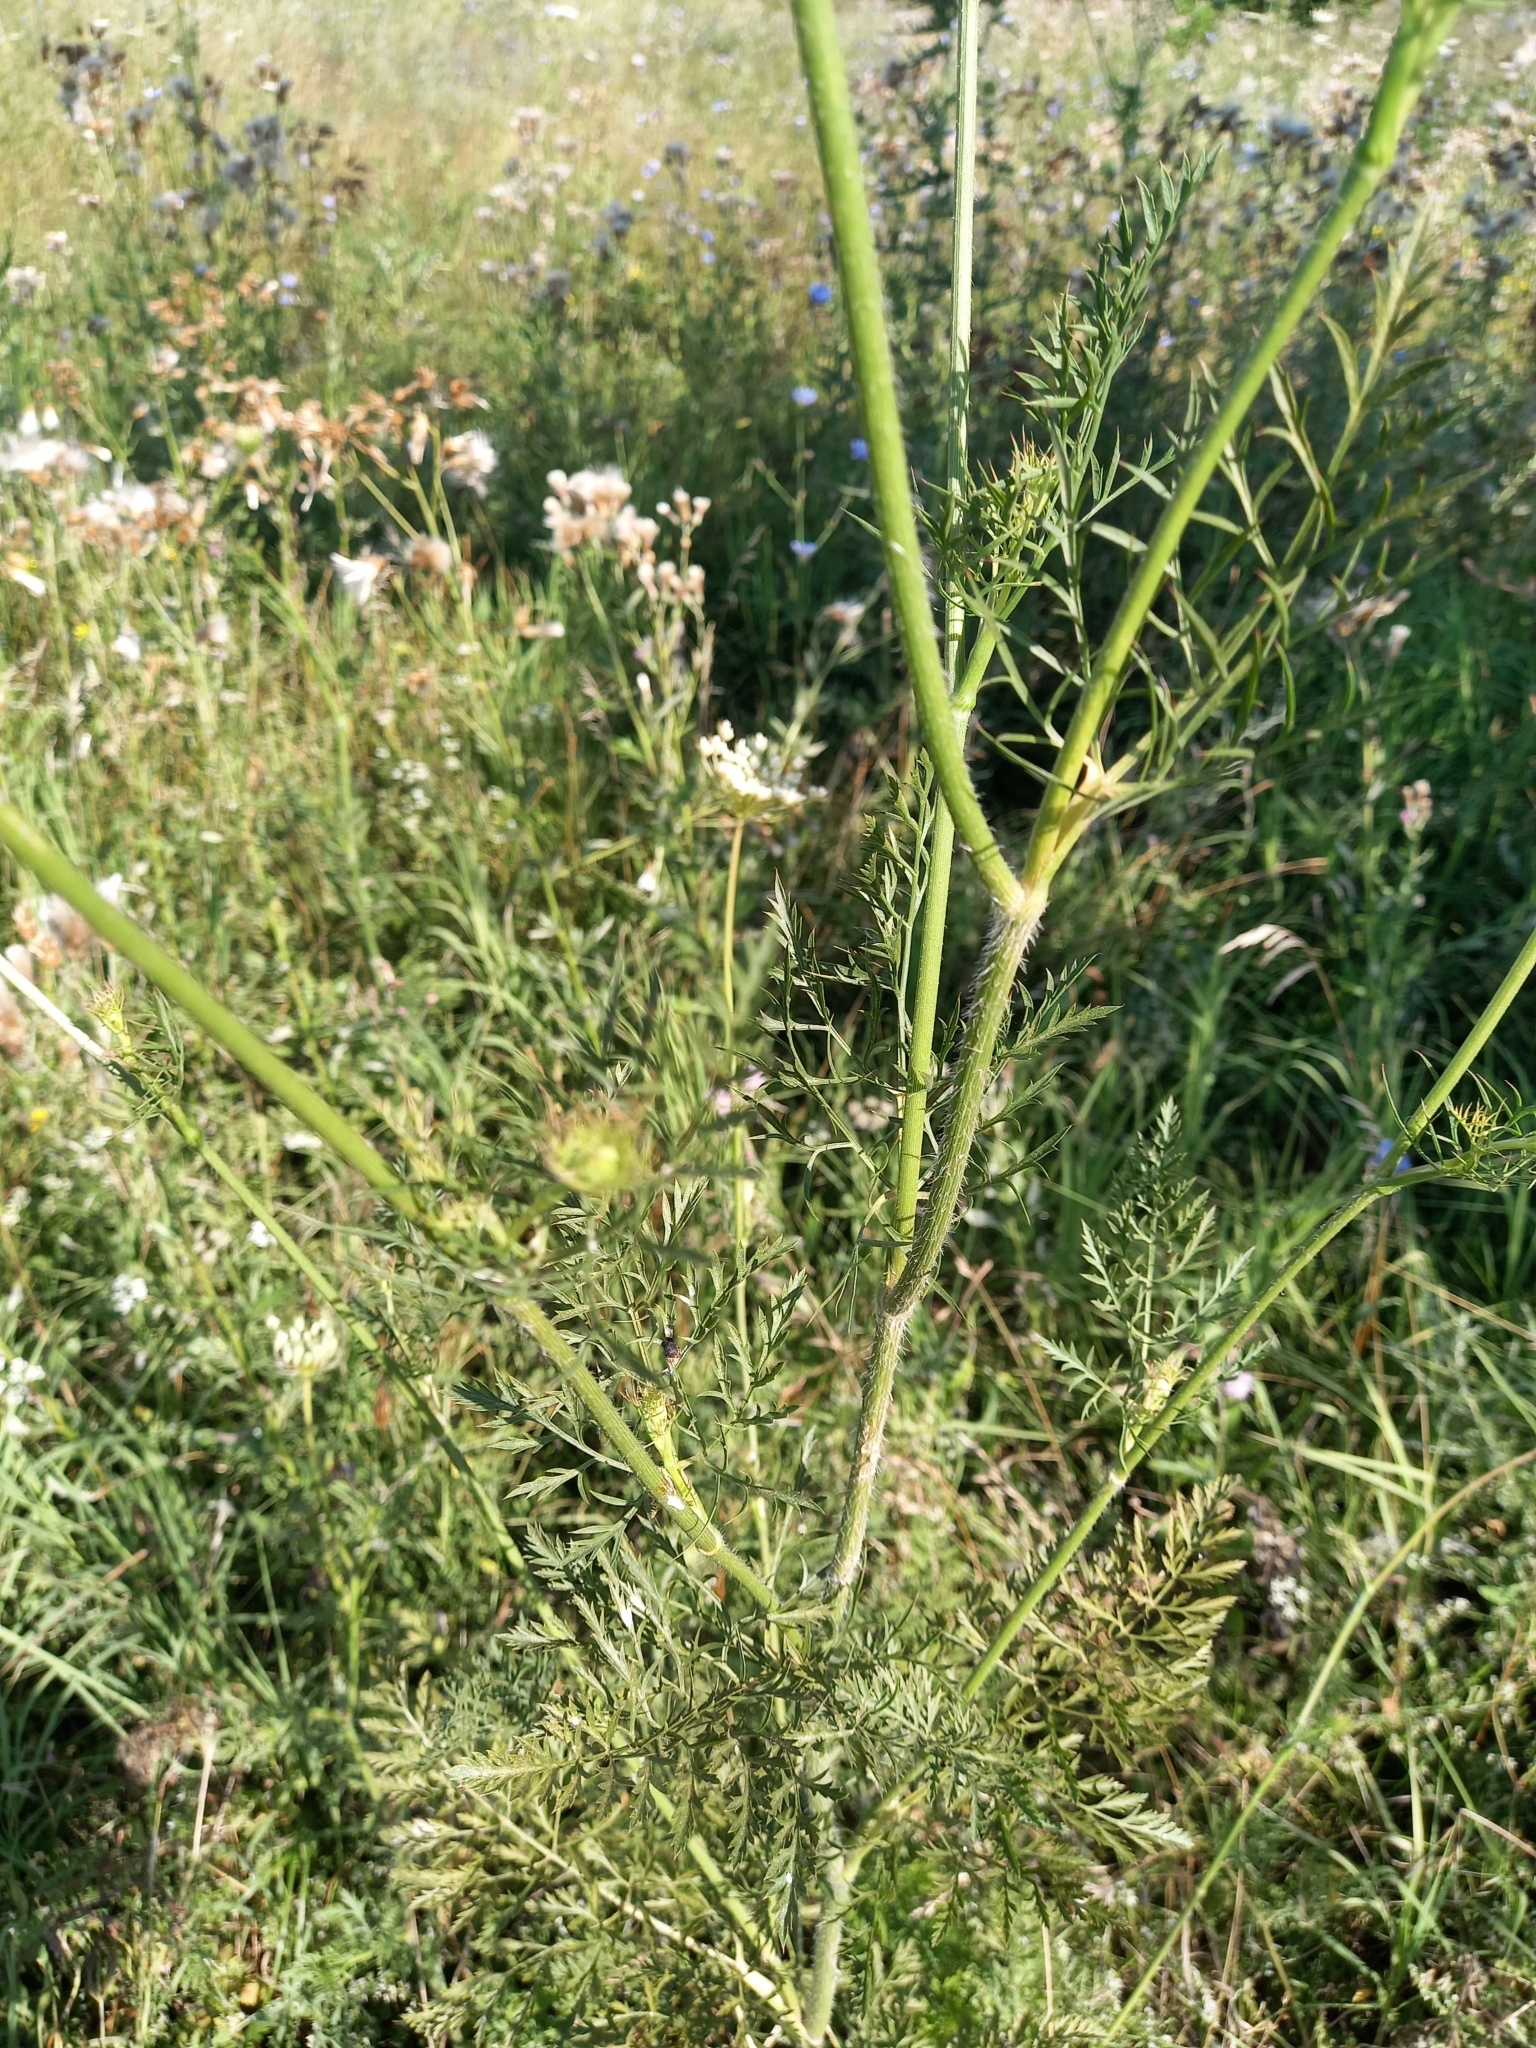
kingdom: Plantae
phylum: Tracheophyta
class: Magnoliopsida
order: Apiales
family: Apiaceae
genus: Daucus
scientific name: Daucus carota
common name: Wild carrot
